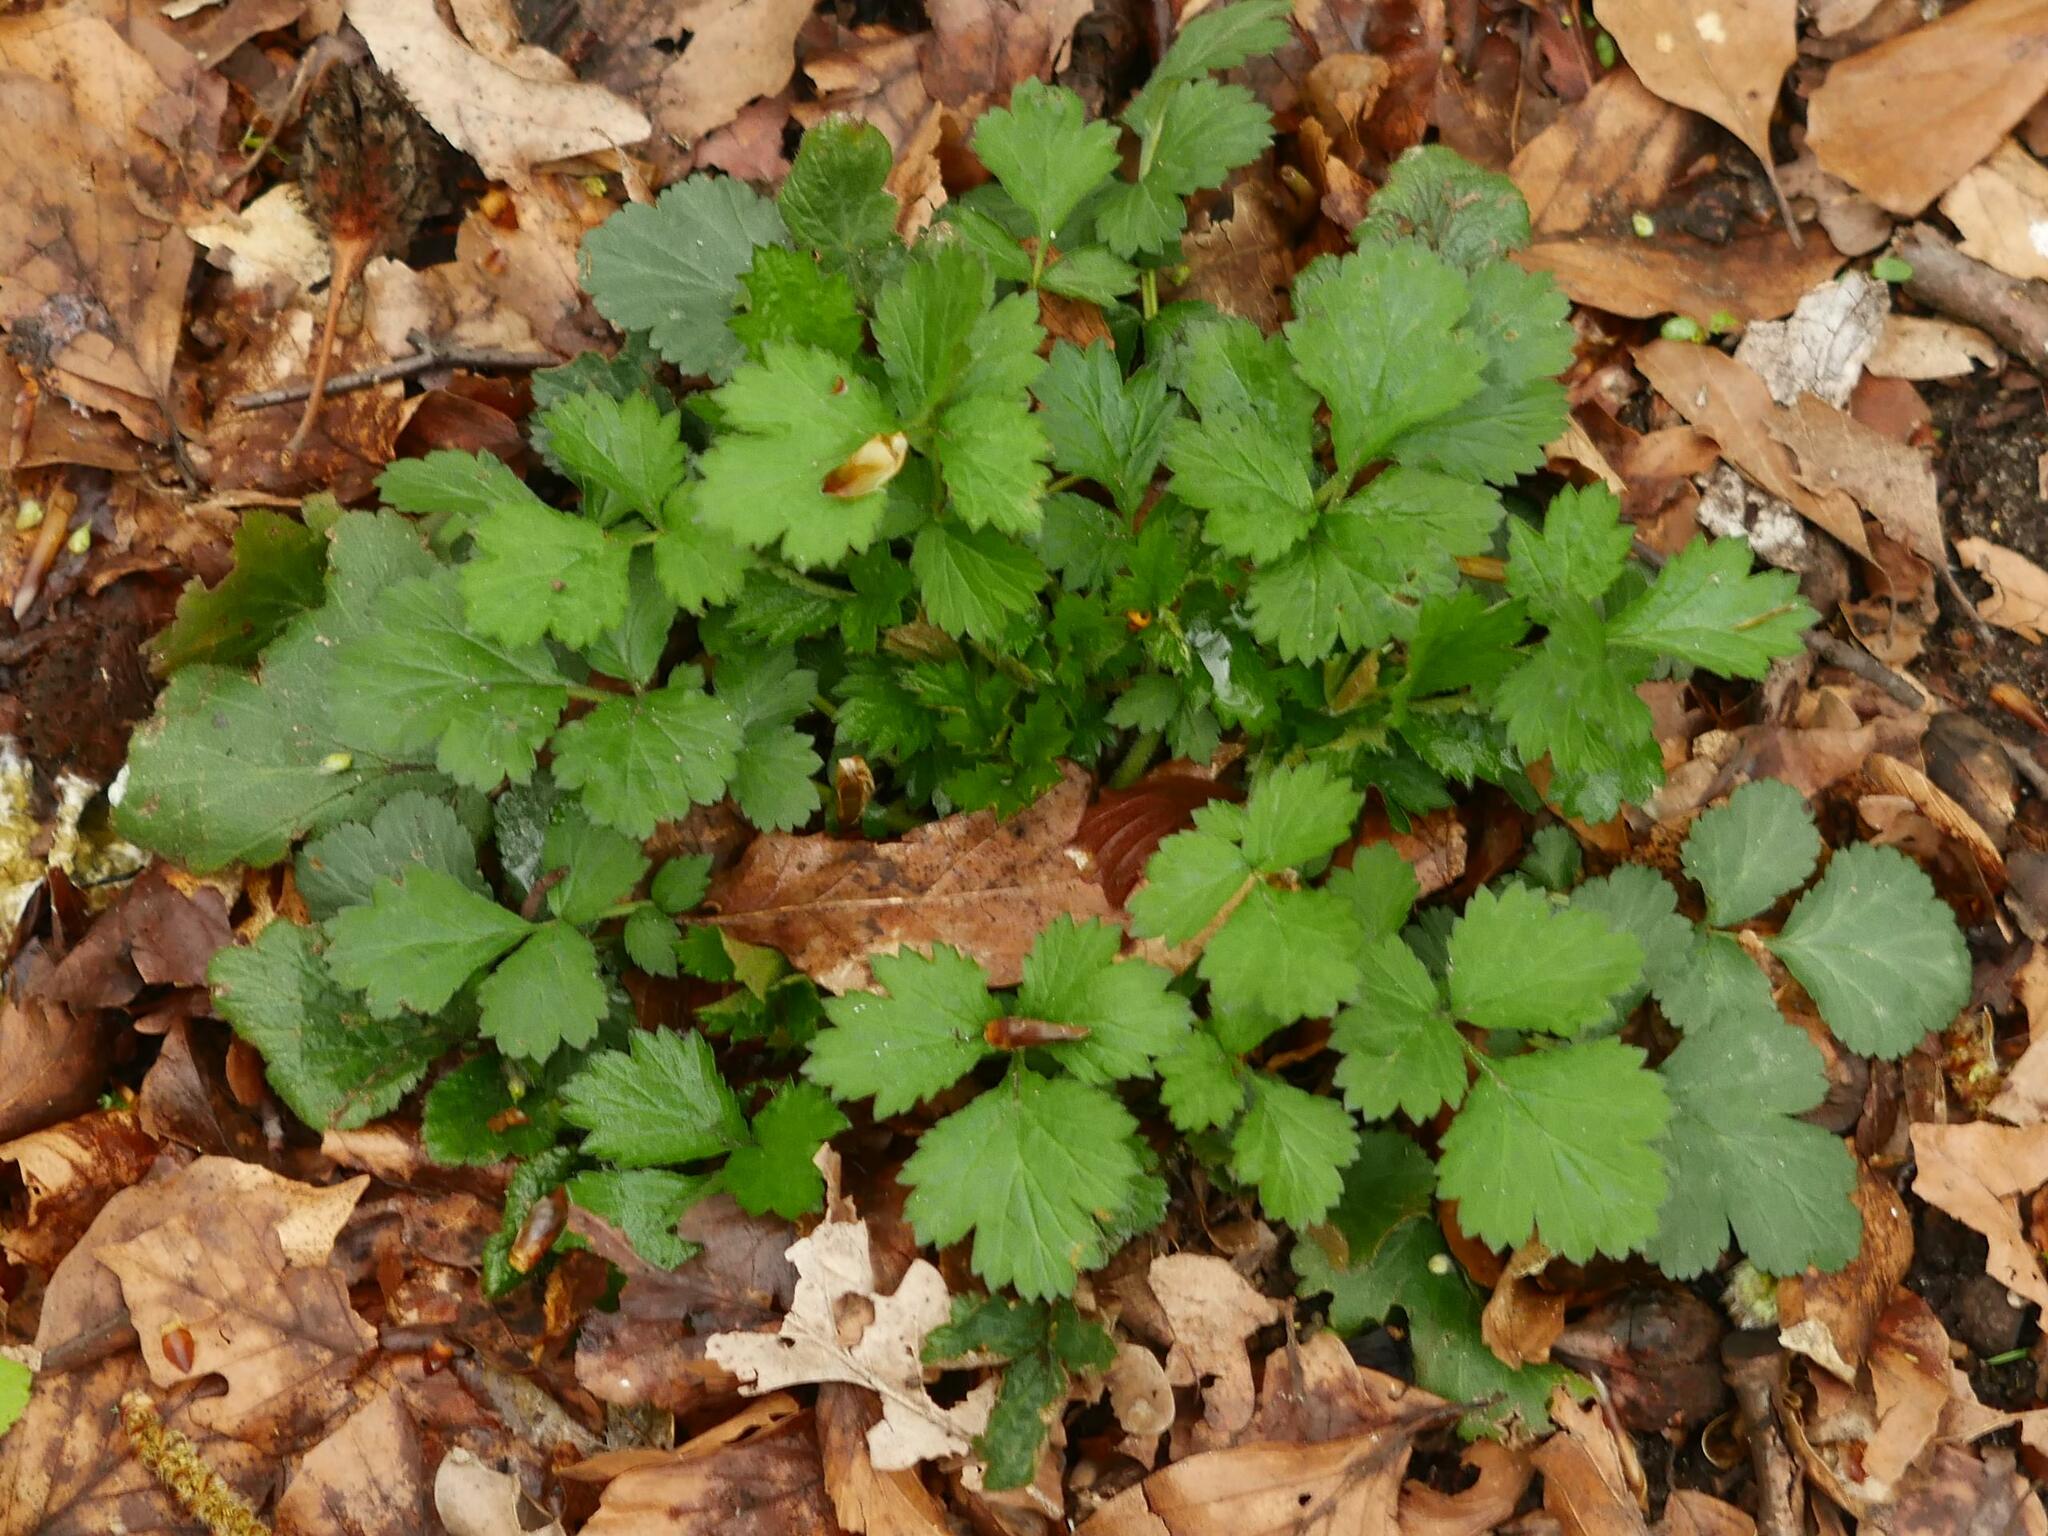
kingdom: Plantae
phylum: Tracheophyta
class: Magnoliopsida
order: Rosales
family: Rosaceae
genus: Geum
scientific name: Geum urbanum
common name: Wood avens
